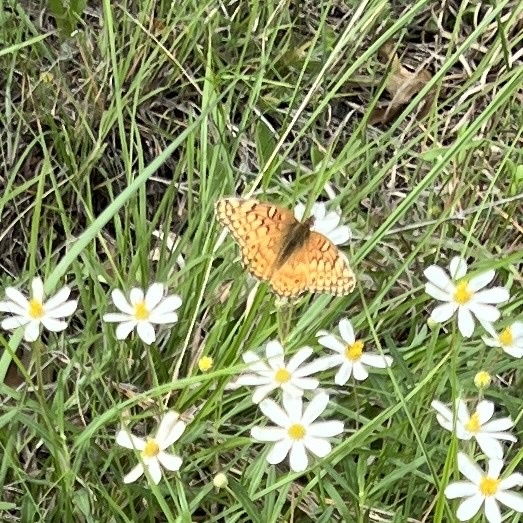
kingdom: Animalia
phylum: Arthropoda
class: Insecta
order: Lepidoptera
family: Nymphalidae
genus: Euptoieta
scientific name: Euptoieta claudia
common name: Variegated fritillary
